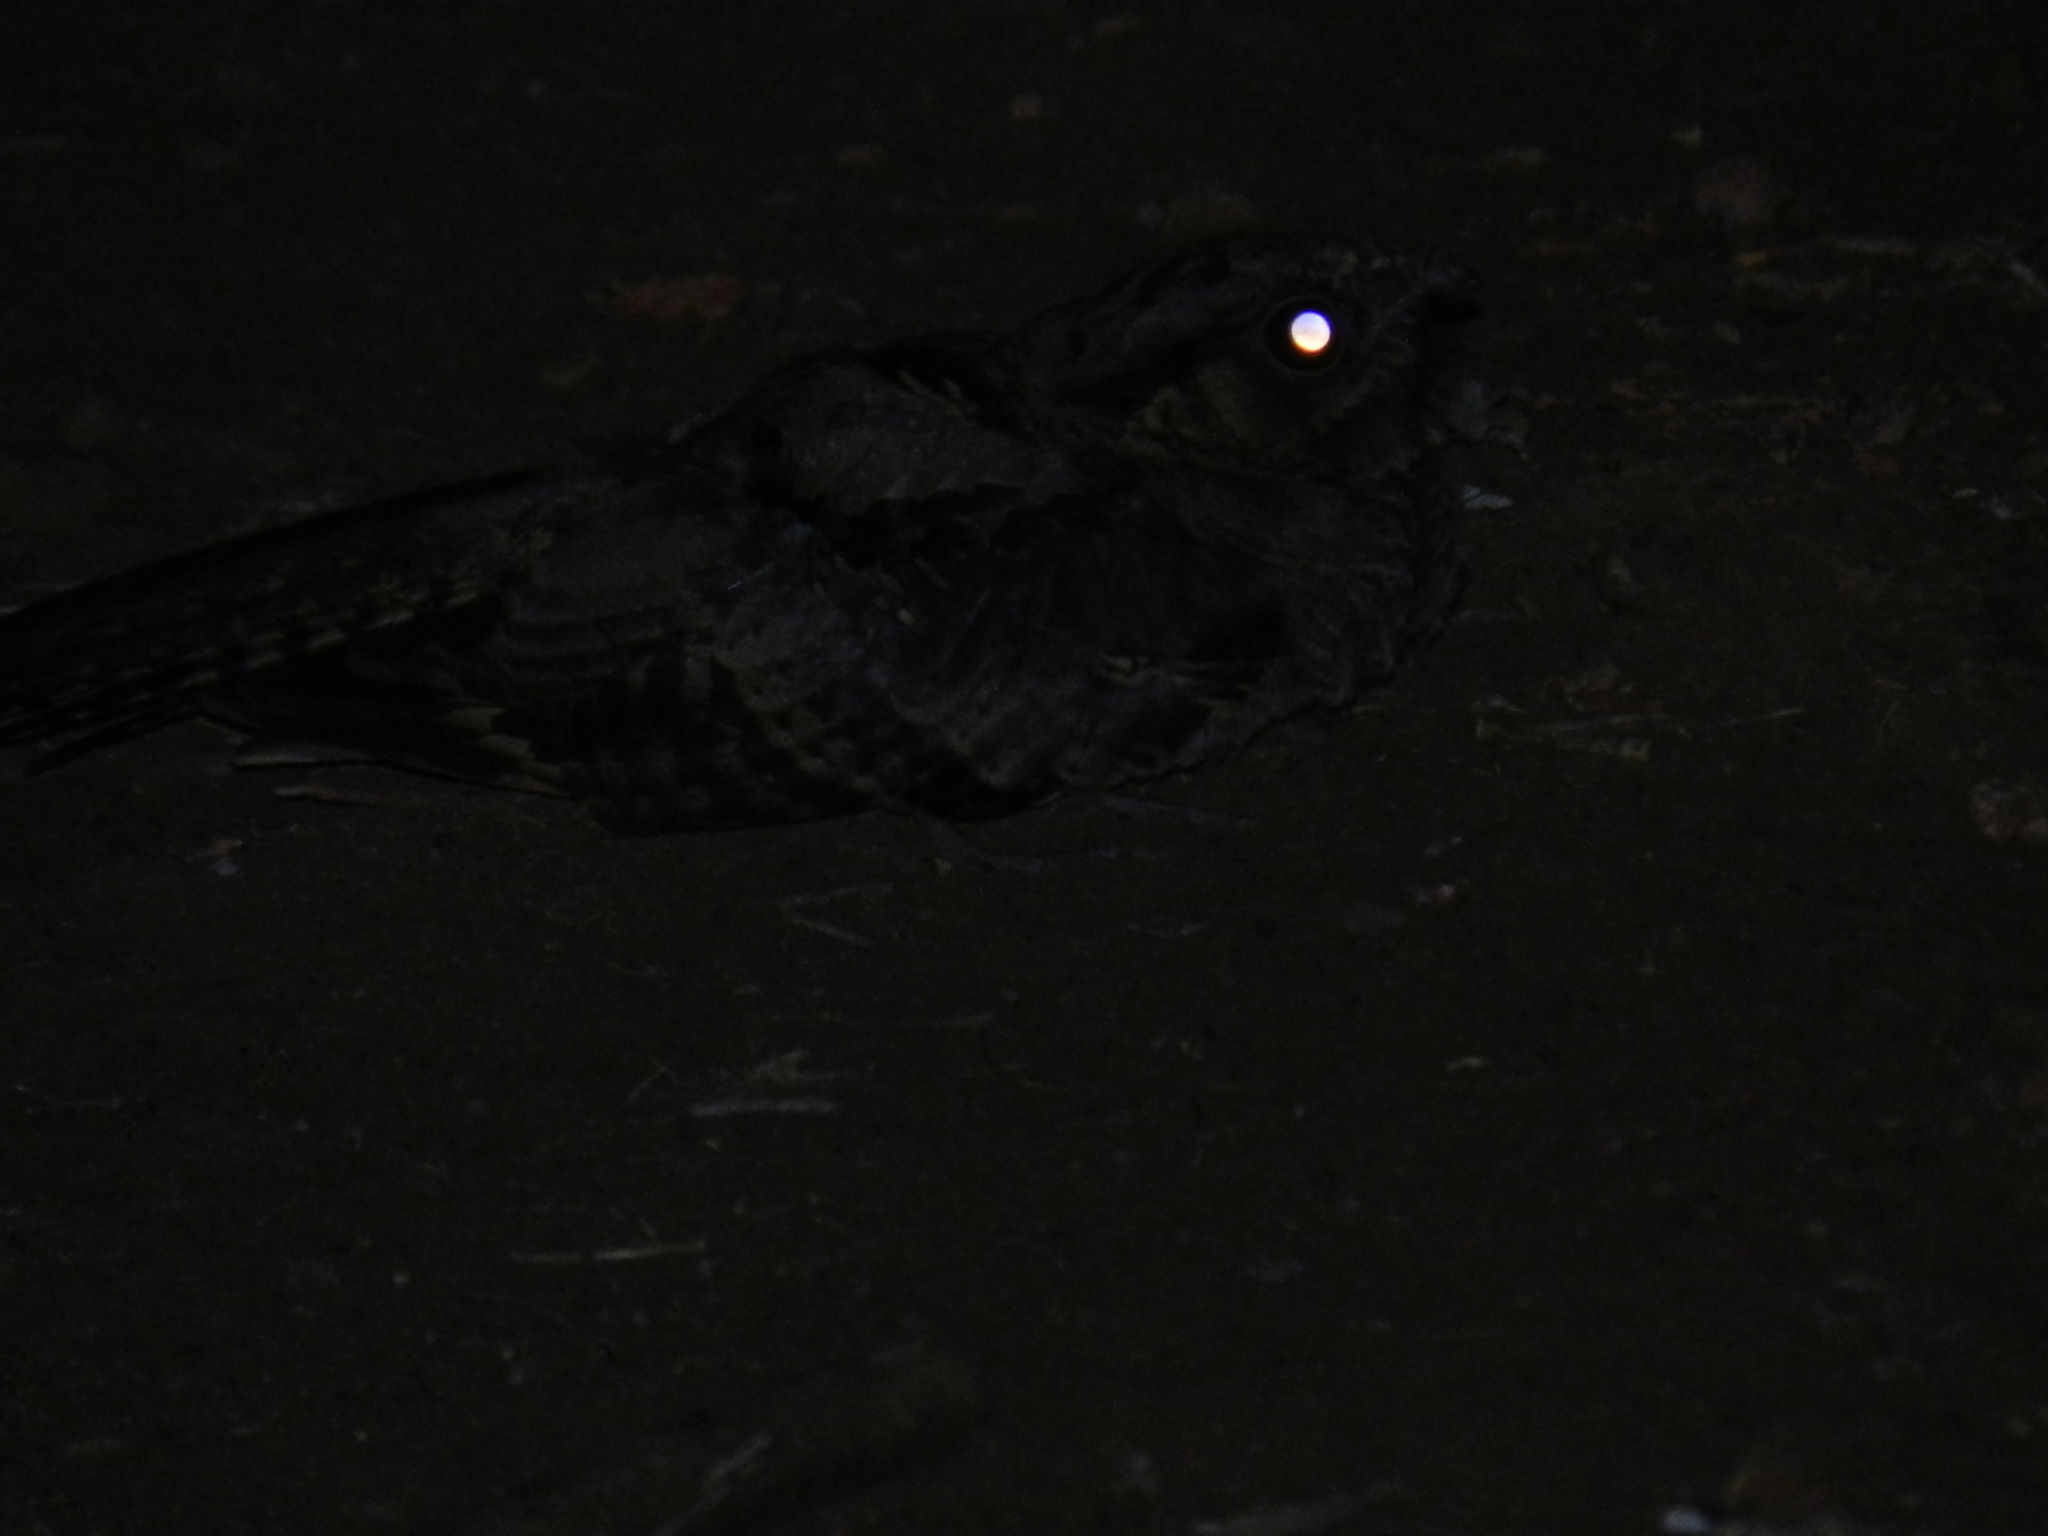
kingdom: Animalia
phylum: Chordata
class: Aves
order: Caprimulgiformes
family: Caprimulgidae
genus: Nyctidromus
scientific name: Nyctidromus albicollis
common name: Pauraque
